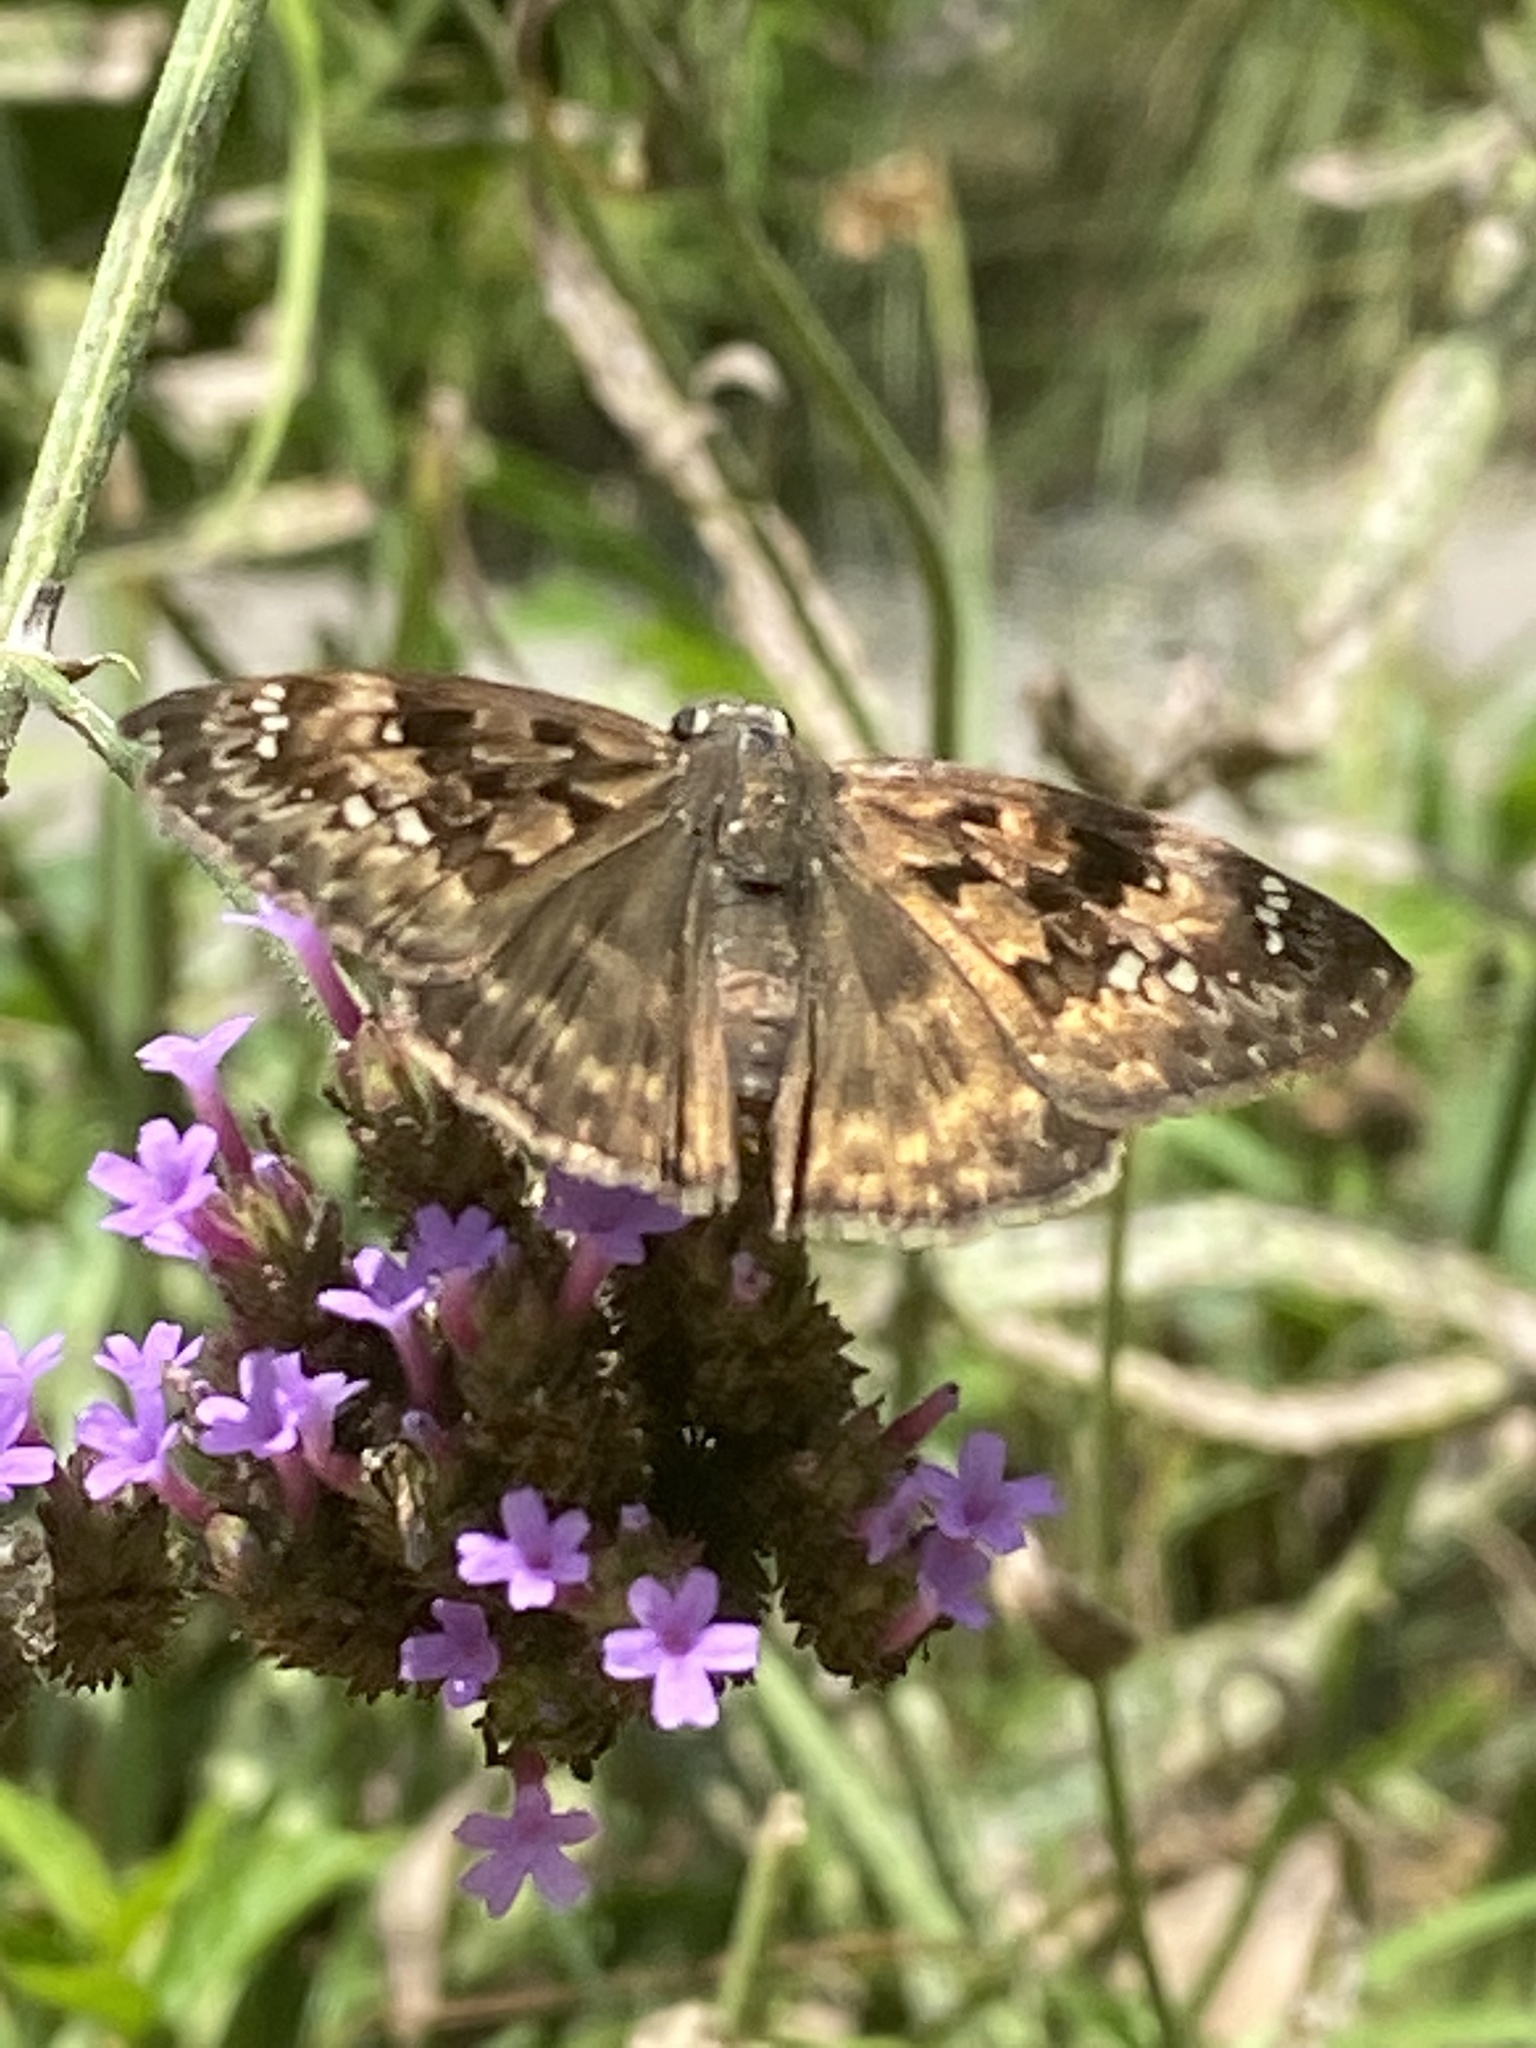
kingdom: Animalia
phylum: Arthropoda
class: Insecta
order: Lepidoptera
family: Hesperiidae
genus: Erynnis
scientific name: Erynnis horatius
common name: Horace's duskywing
